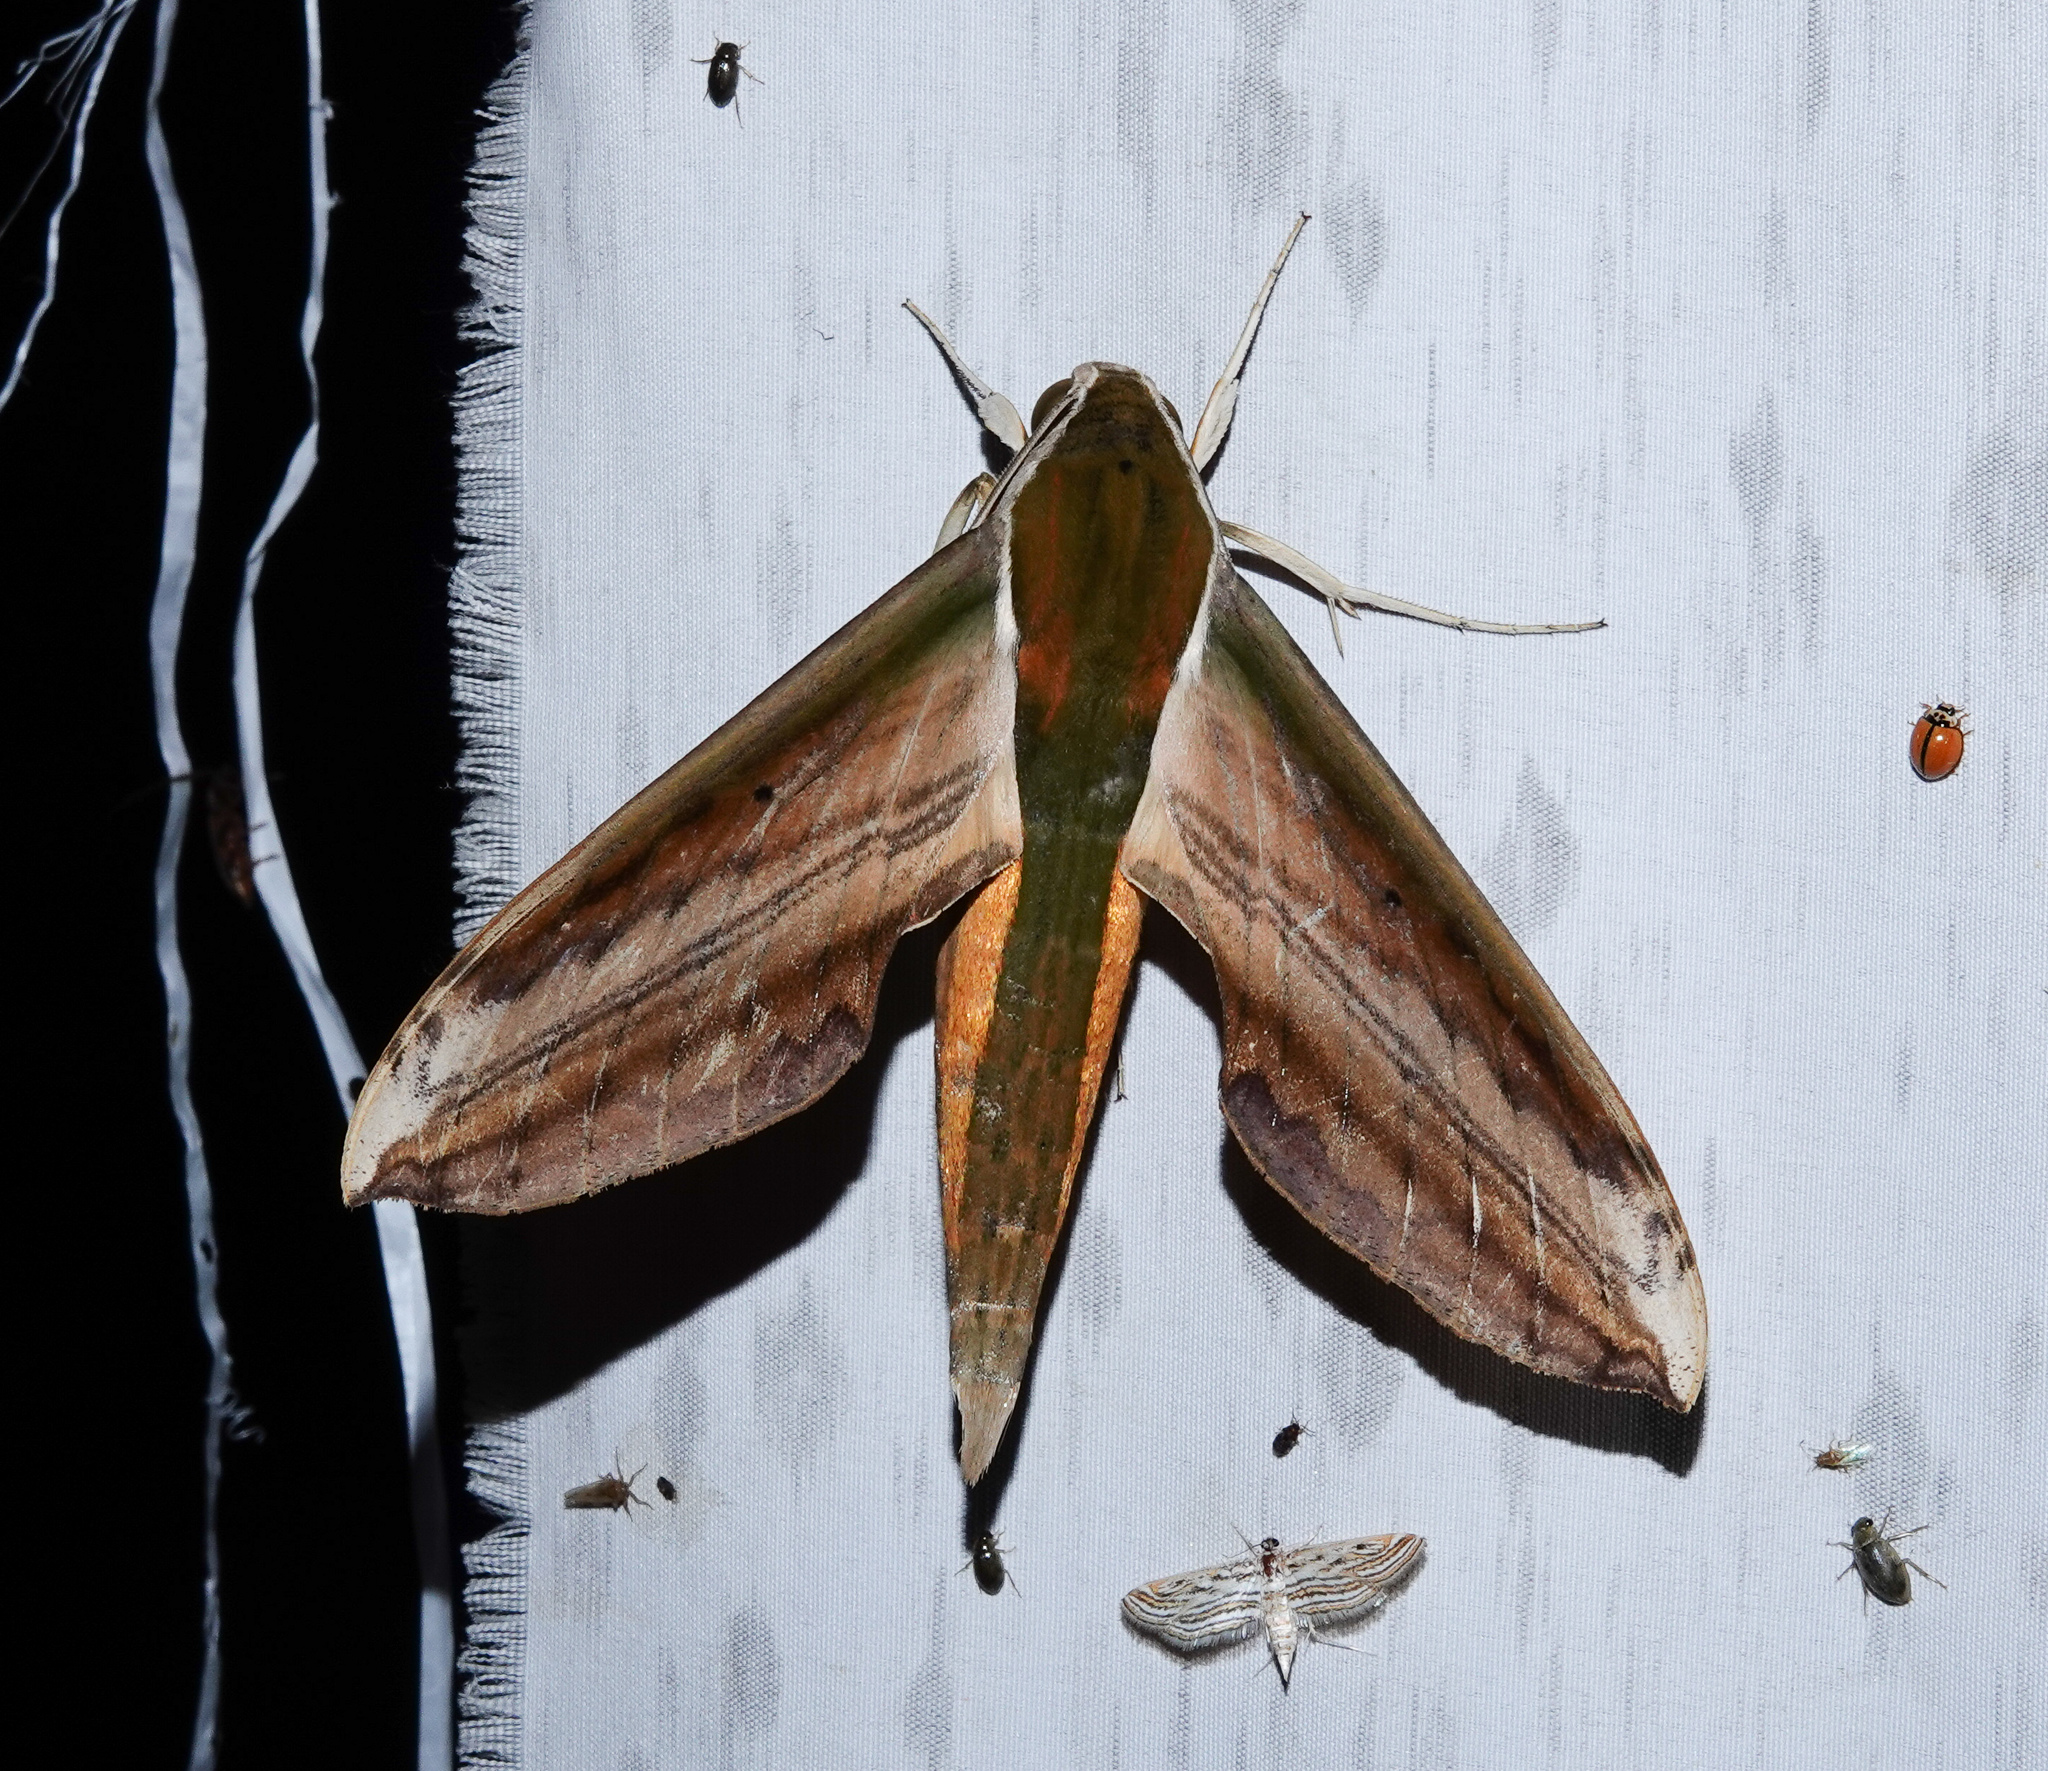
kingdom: Animalia
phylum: Arthropoda
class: Insecta
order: Lepidoptera
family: Sphingidae
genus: Theretra
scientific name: Theretra nessus
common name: Yam hawk moth
